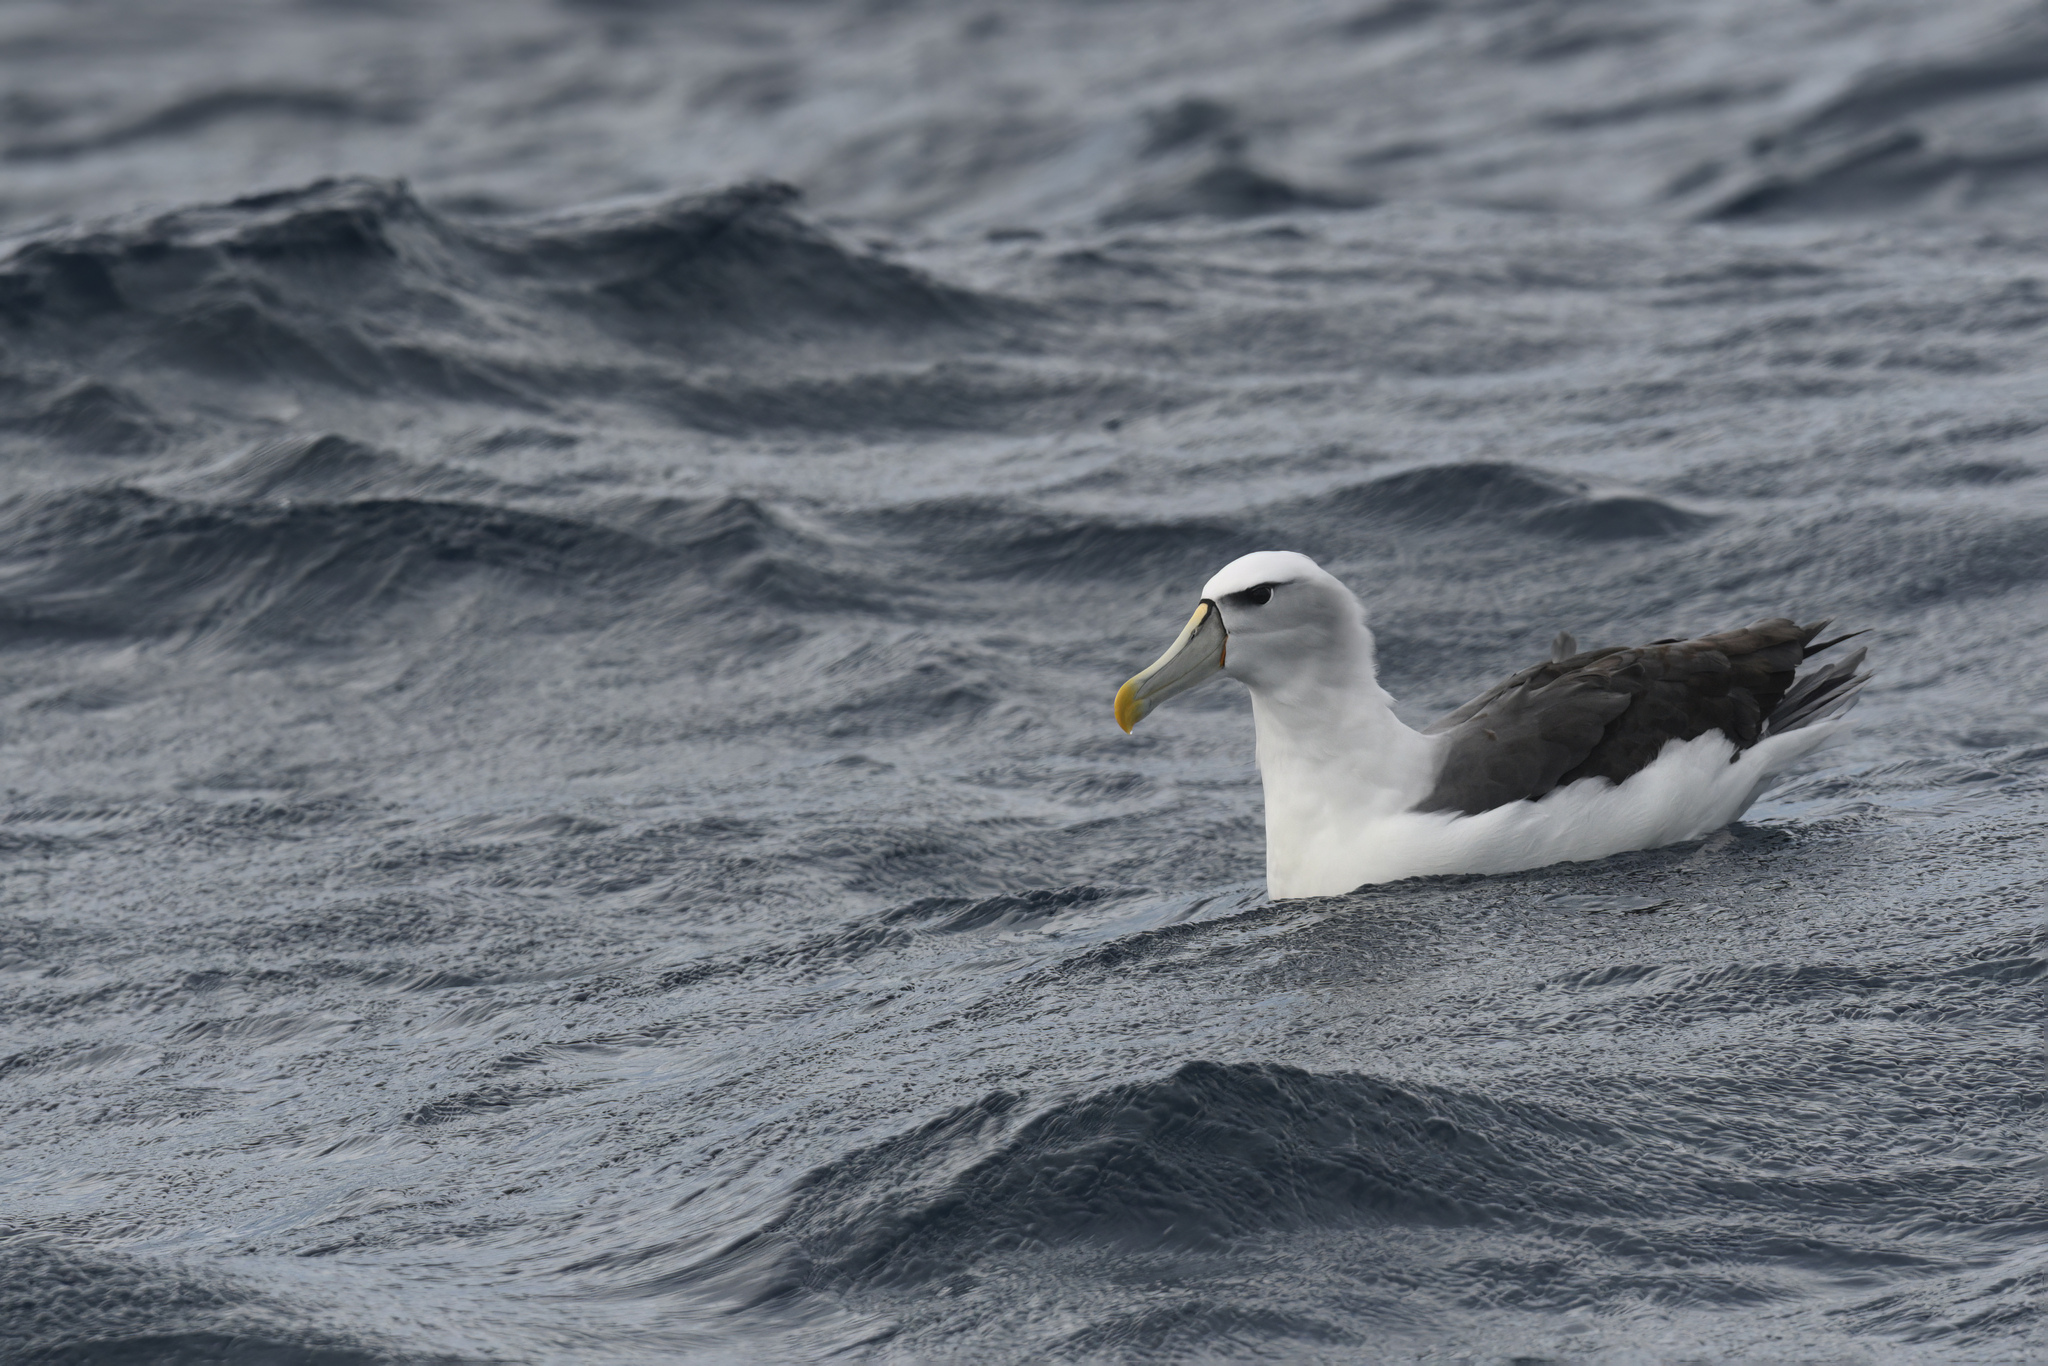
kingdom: Animalia
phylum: Chordata
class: Aves
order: Procellariiformes
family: Diomedeidae
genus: Thalassarche
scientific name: Thalassarche cauta
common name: Shy albatross
